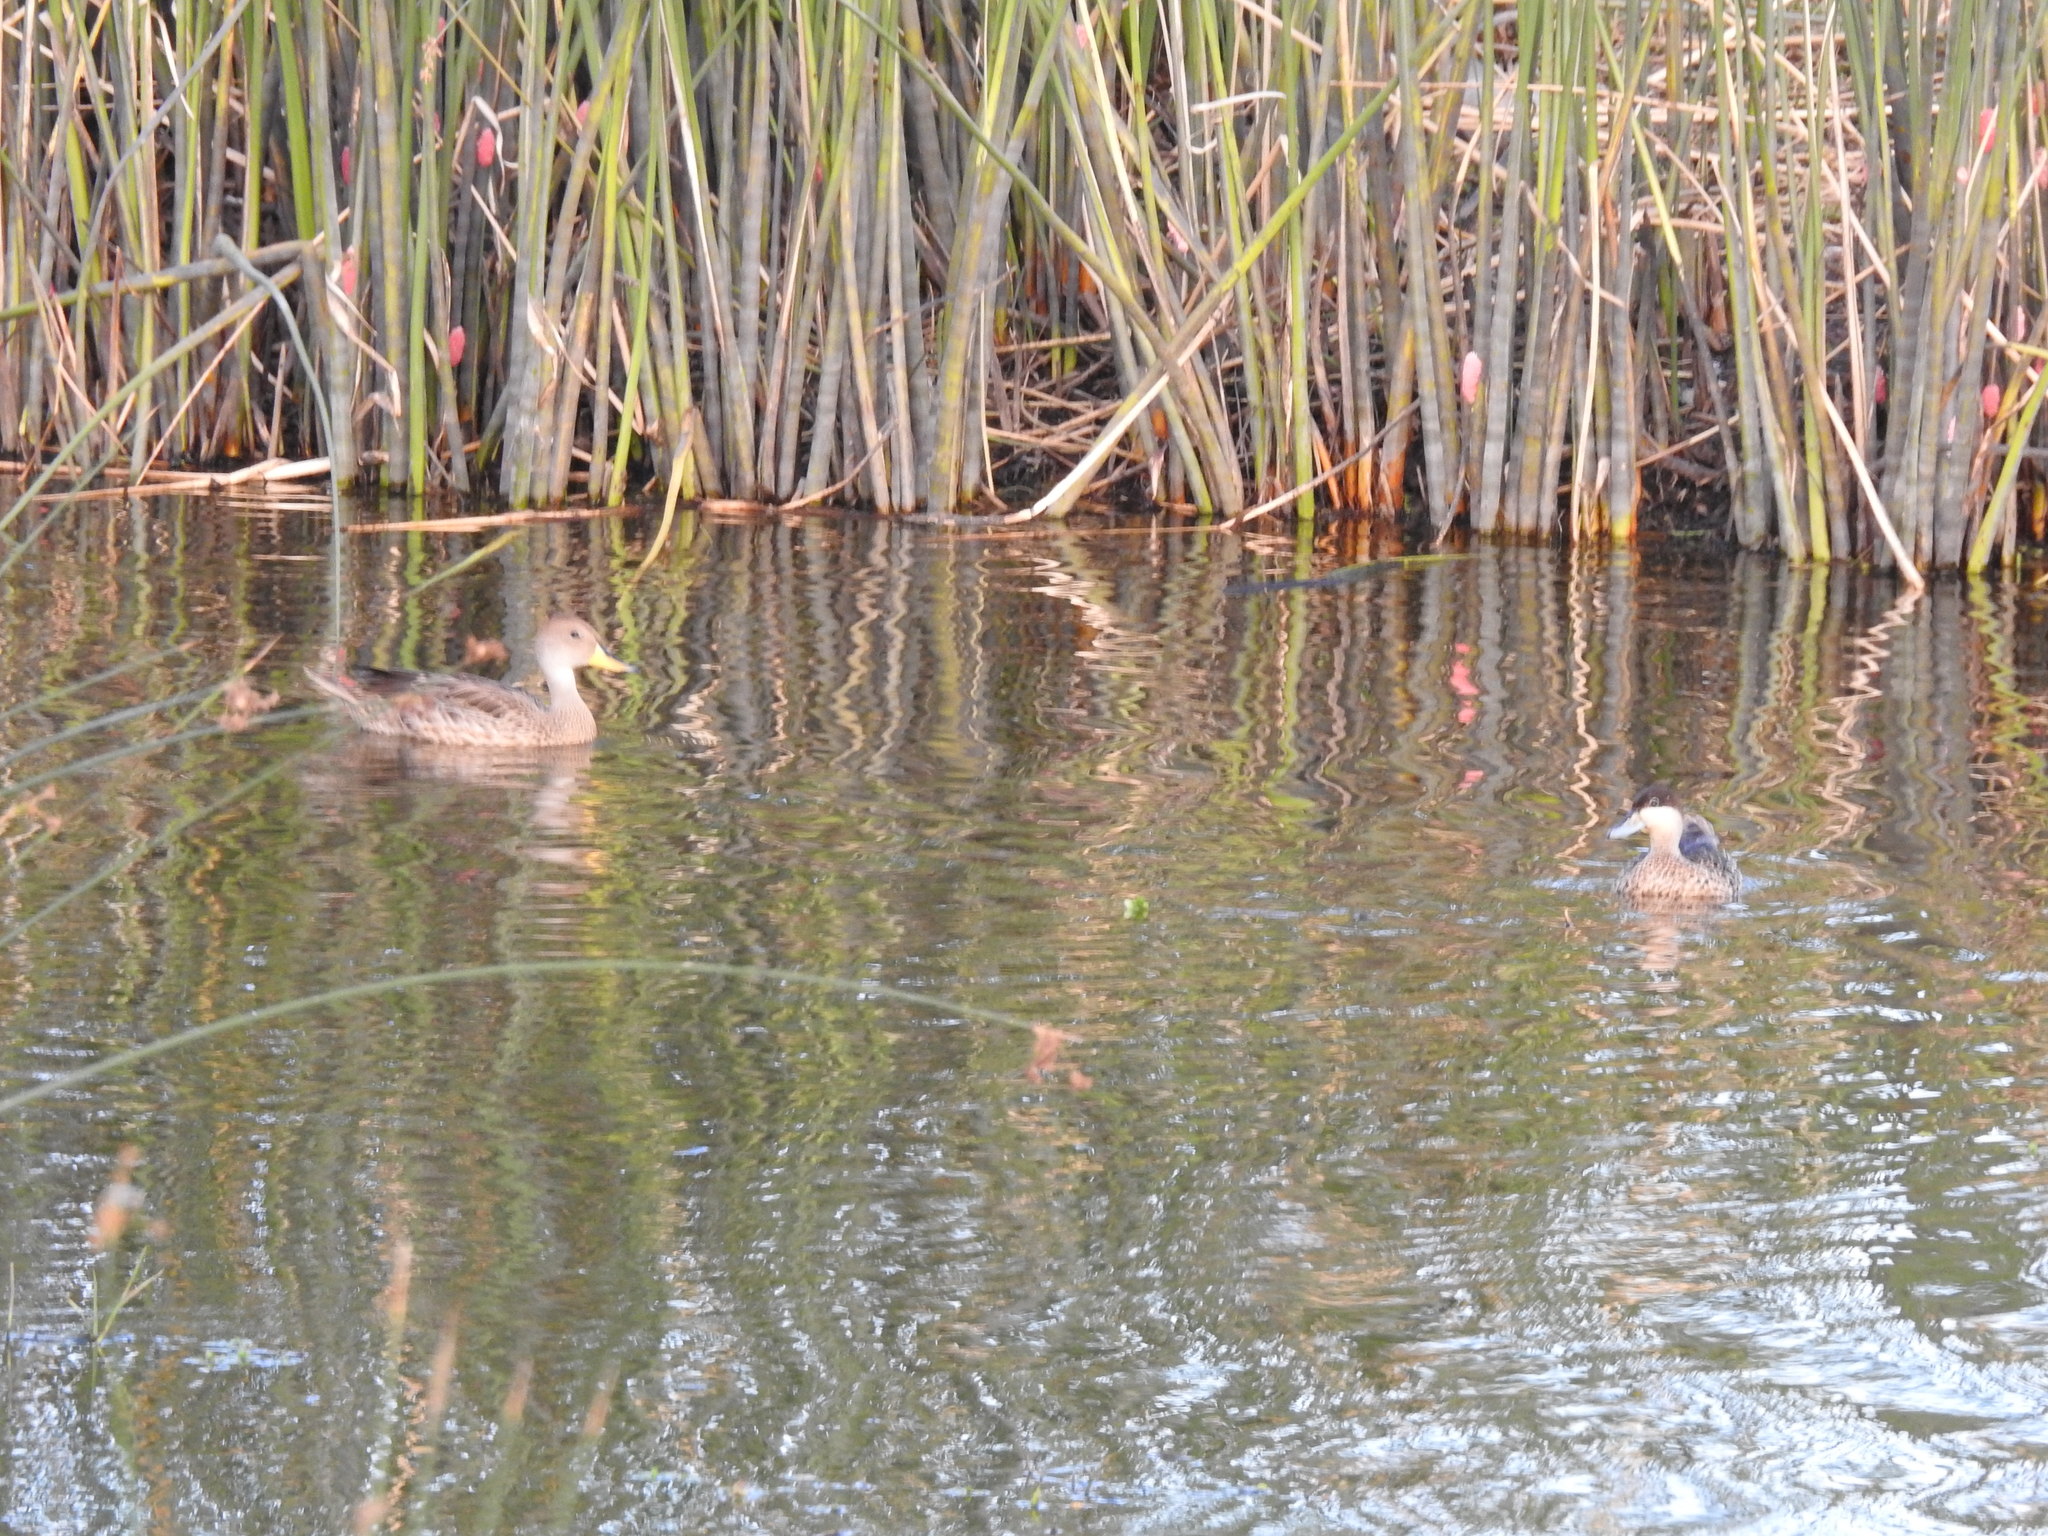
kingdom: Animalia
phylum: Chordata
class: Aves
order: Anseriformes
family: Anatidae
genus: Anas
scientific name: Anas georgica
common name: Yellow-billed pintail
